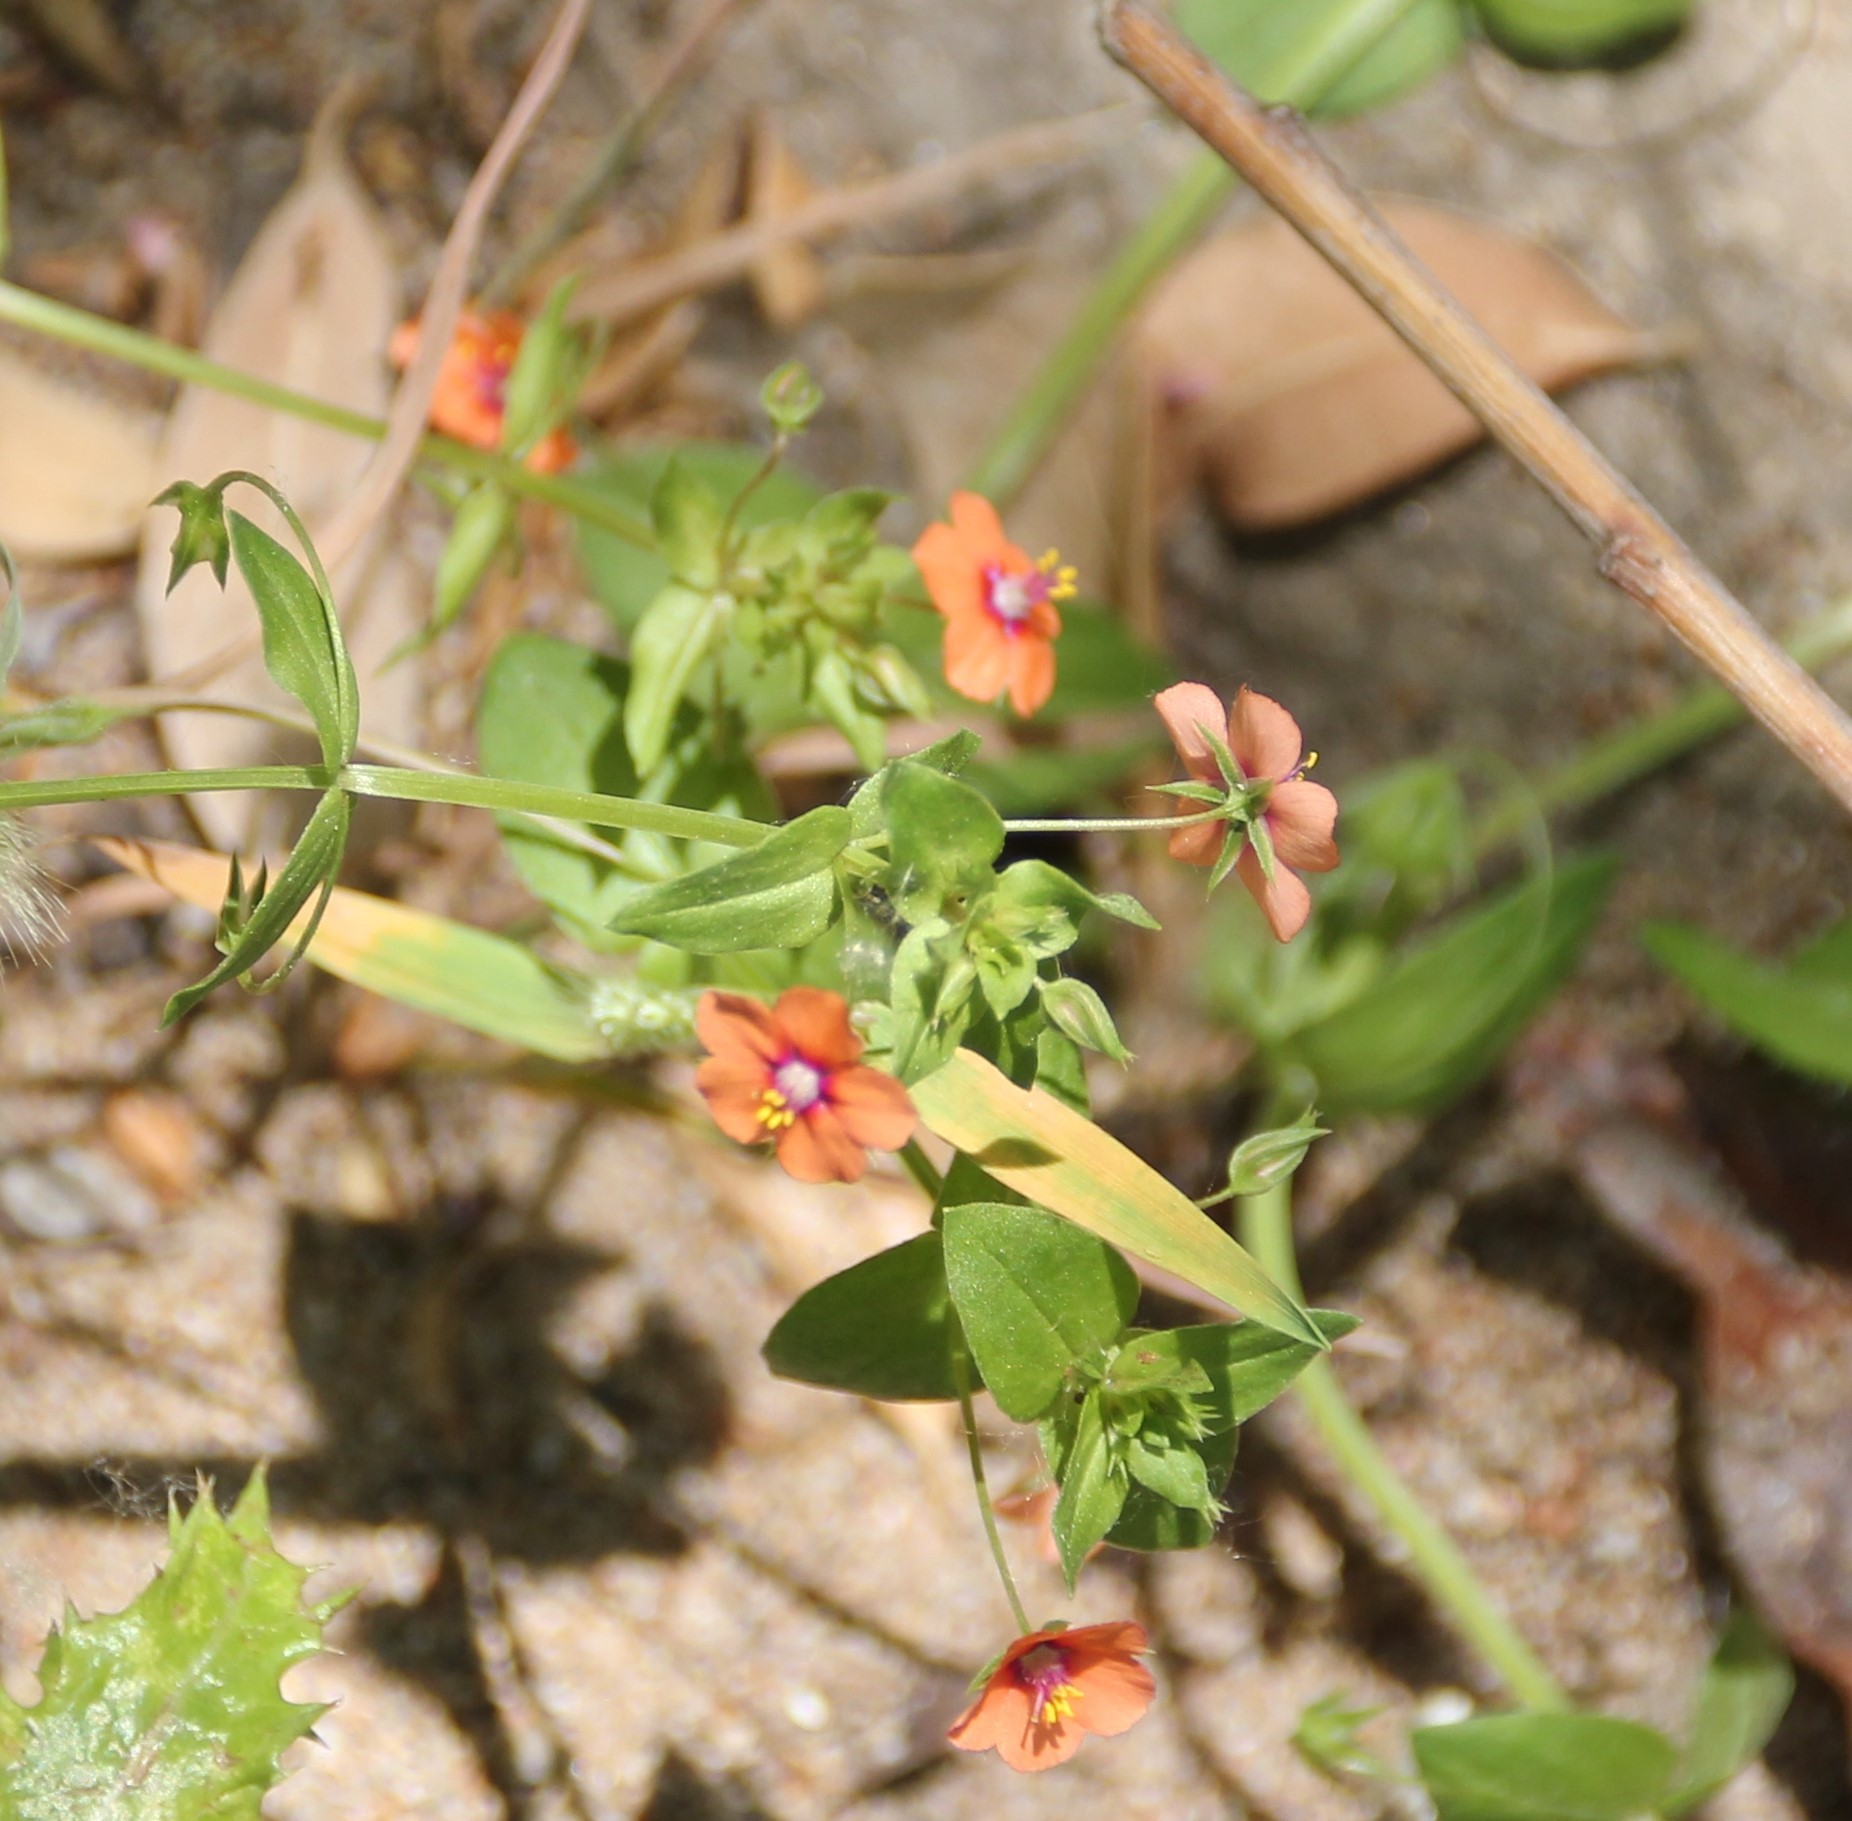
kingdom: Plantae
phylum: Tracheophyta
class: Magnoliopsida
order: Ericales
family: Primulaceae
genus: Lysimachia
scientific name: Lysimachia arvensis
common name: Scarlet pimpernel
